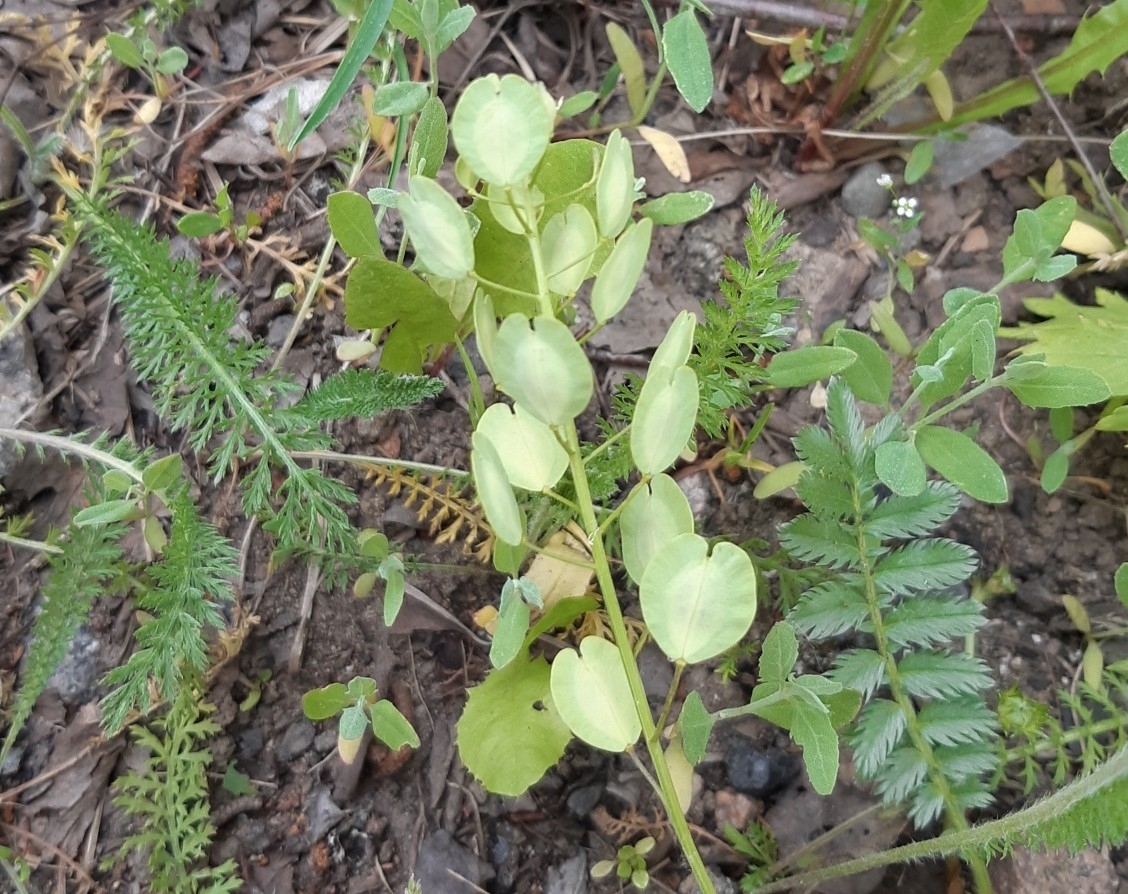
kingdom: Plantae
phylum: Tracheophyta
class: Magnoliopsida
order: Brassicales
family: Brassicaceae
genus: Thlaspi
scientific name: Thlaspi arvense
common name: Field pennycress
